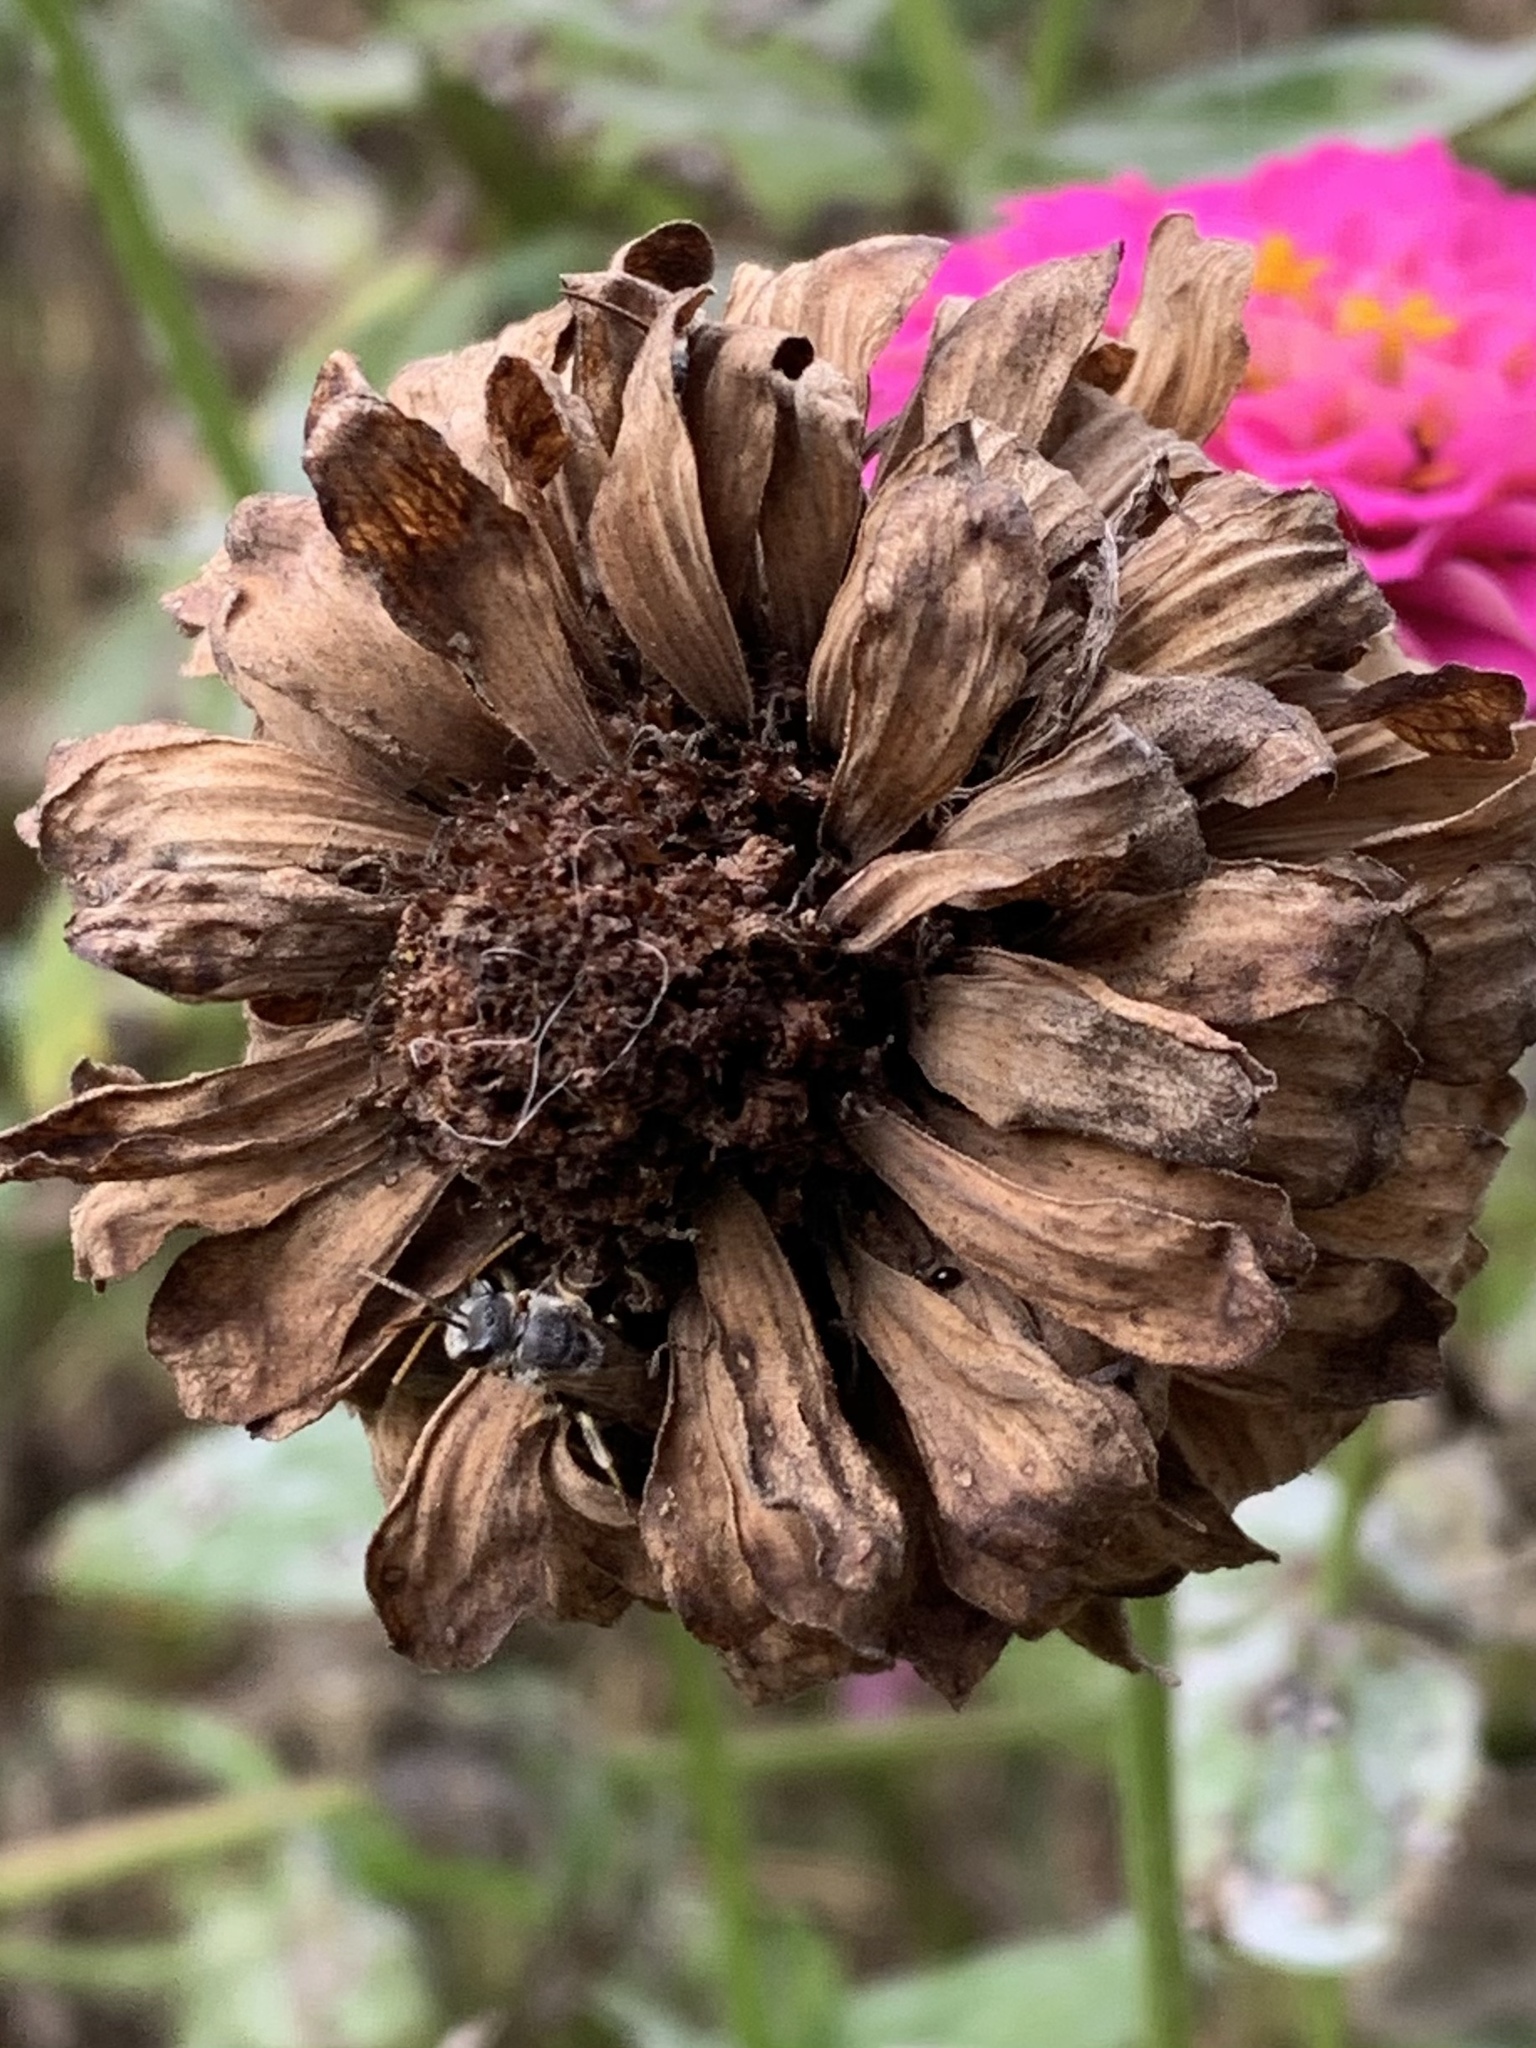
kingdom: Animalia
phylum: Arthropoda
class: Insecta
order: Hymenoptera
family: Halictidae
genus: Halictus
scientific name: Halictus ligatus
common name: Ligated furrow bee
